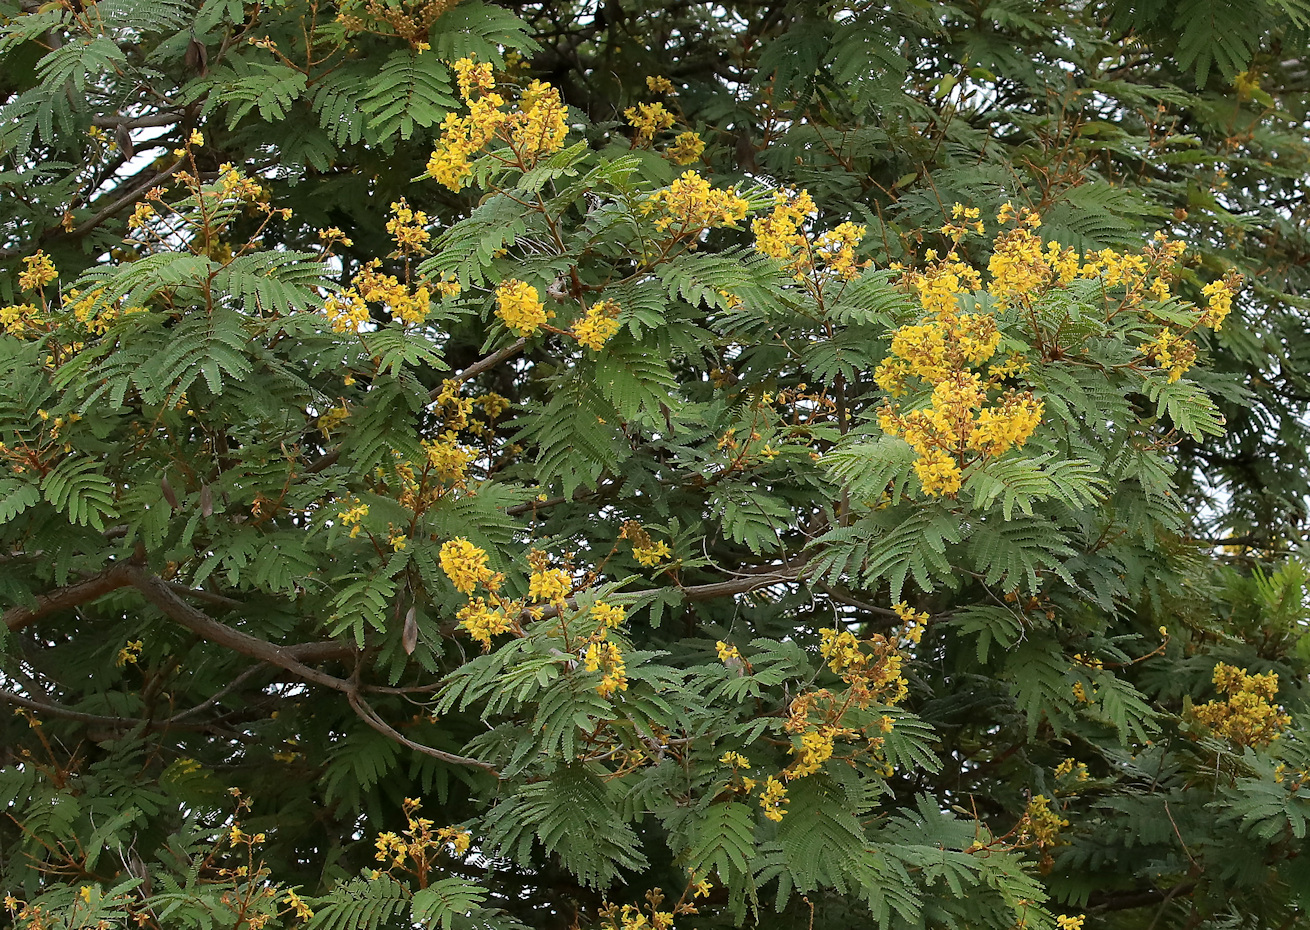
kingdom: Plantae
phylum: Tracheophyta
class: Magnoliopsida
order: Fabales
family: Fabaceae
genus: Peltophorum
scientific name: Peltophorum africanum
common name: African black wattle
